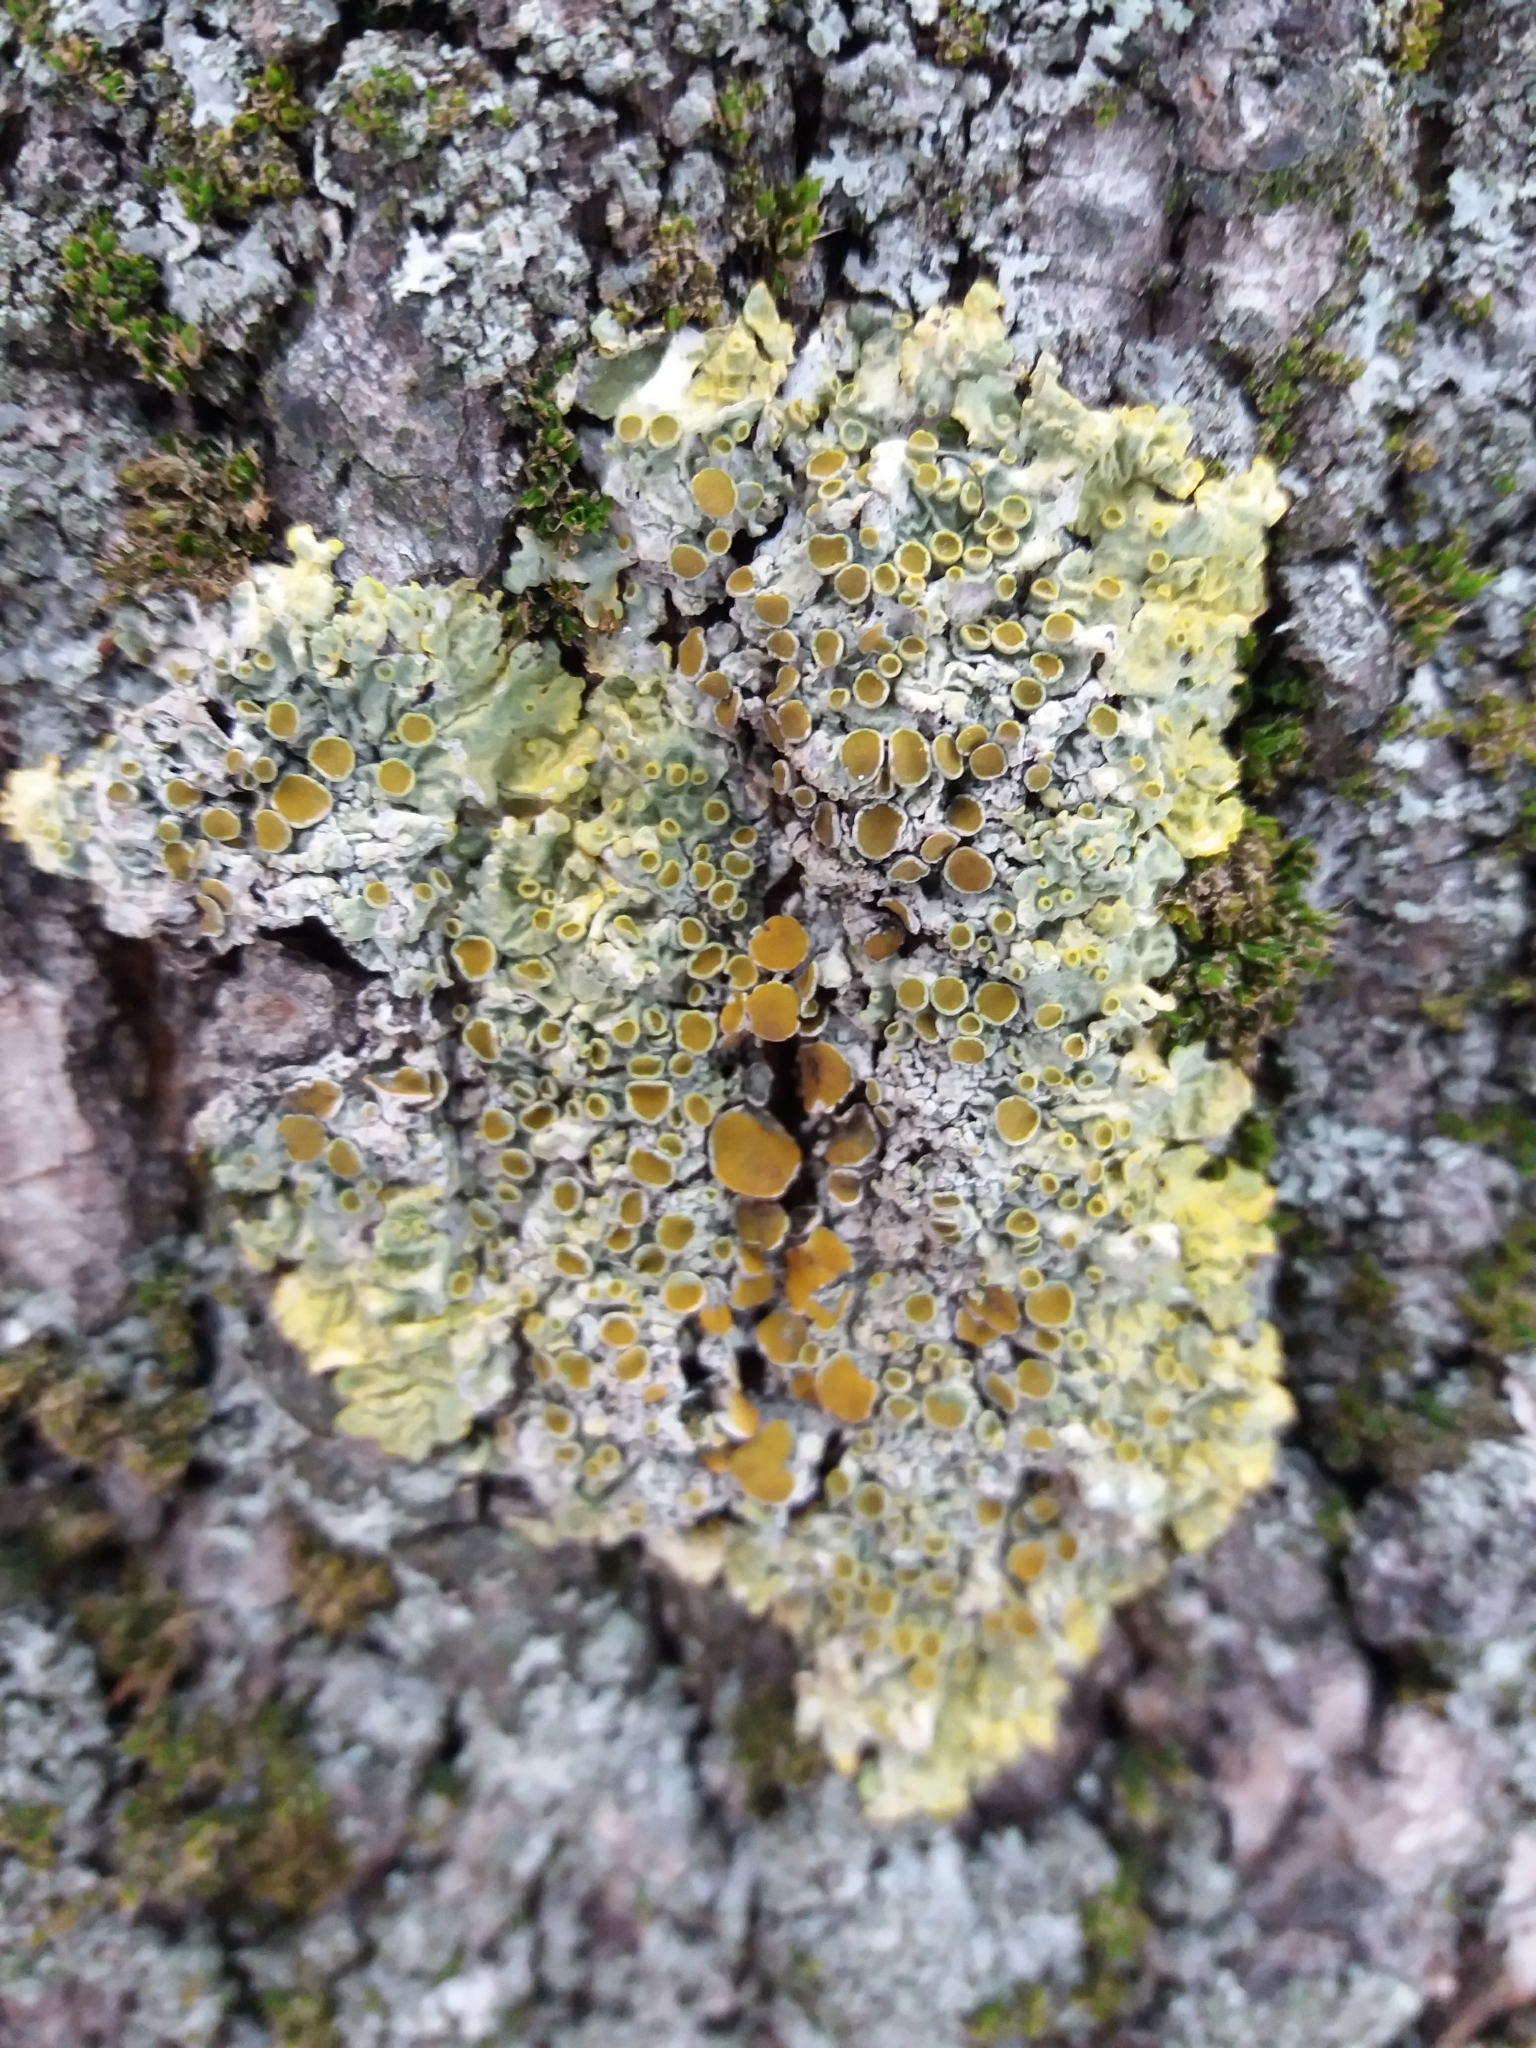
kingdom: Fungi
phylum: Ascomycota
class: Lecanoromycetes
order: Teloschistales
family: Teloschistaceae
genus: Xanthoria
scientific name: Xanthoria parietina
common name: Common orange lichen
